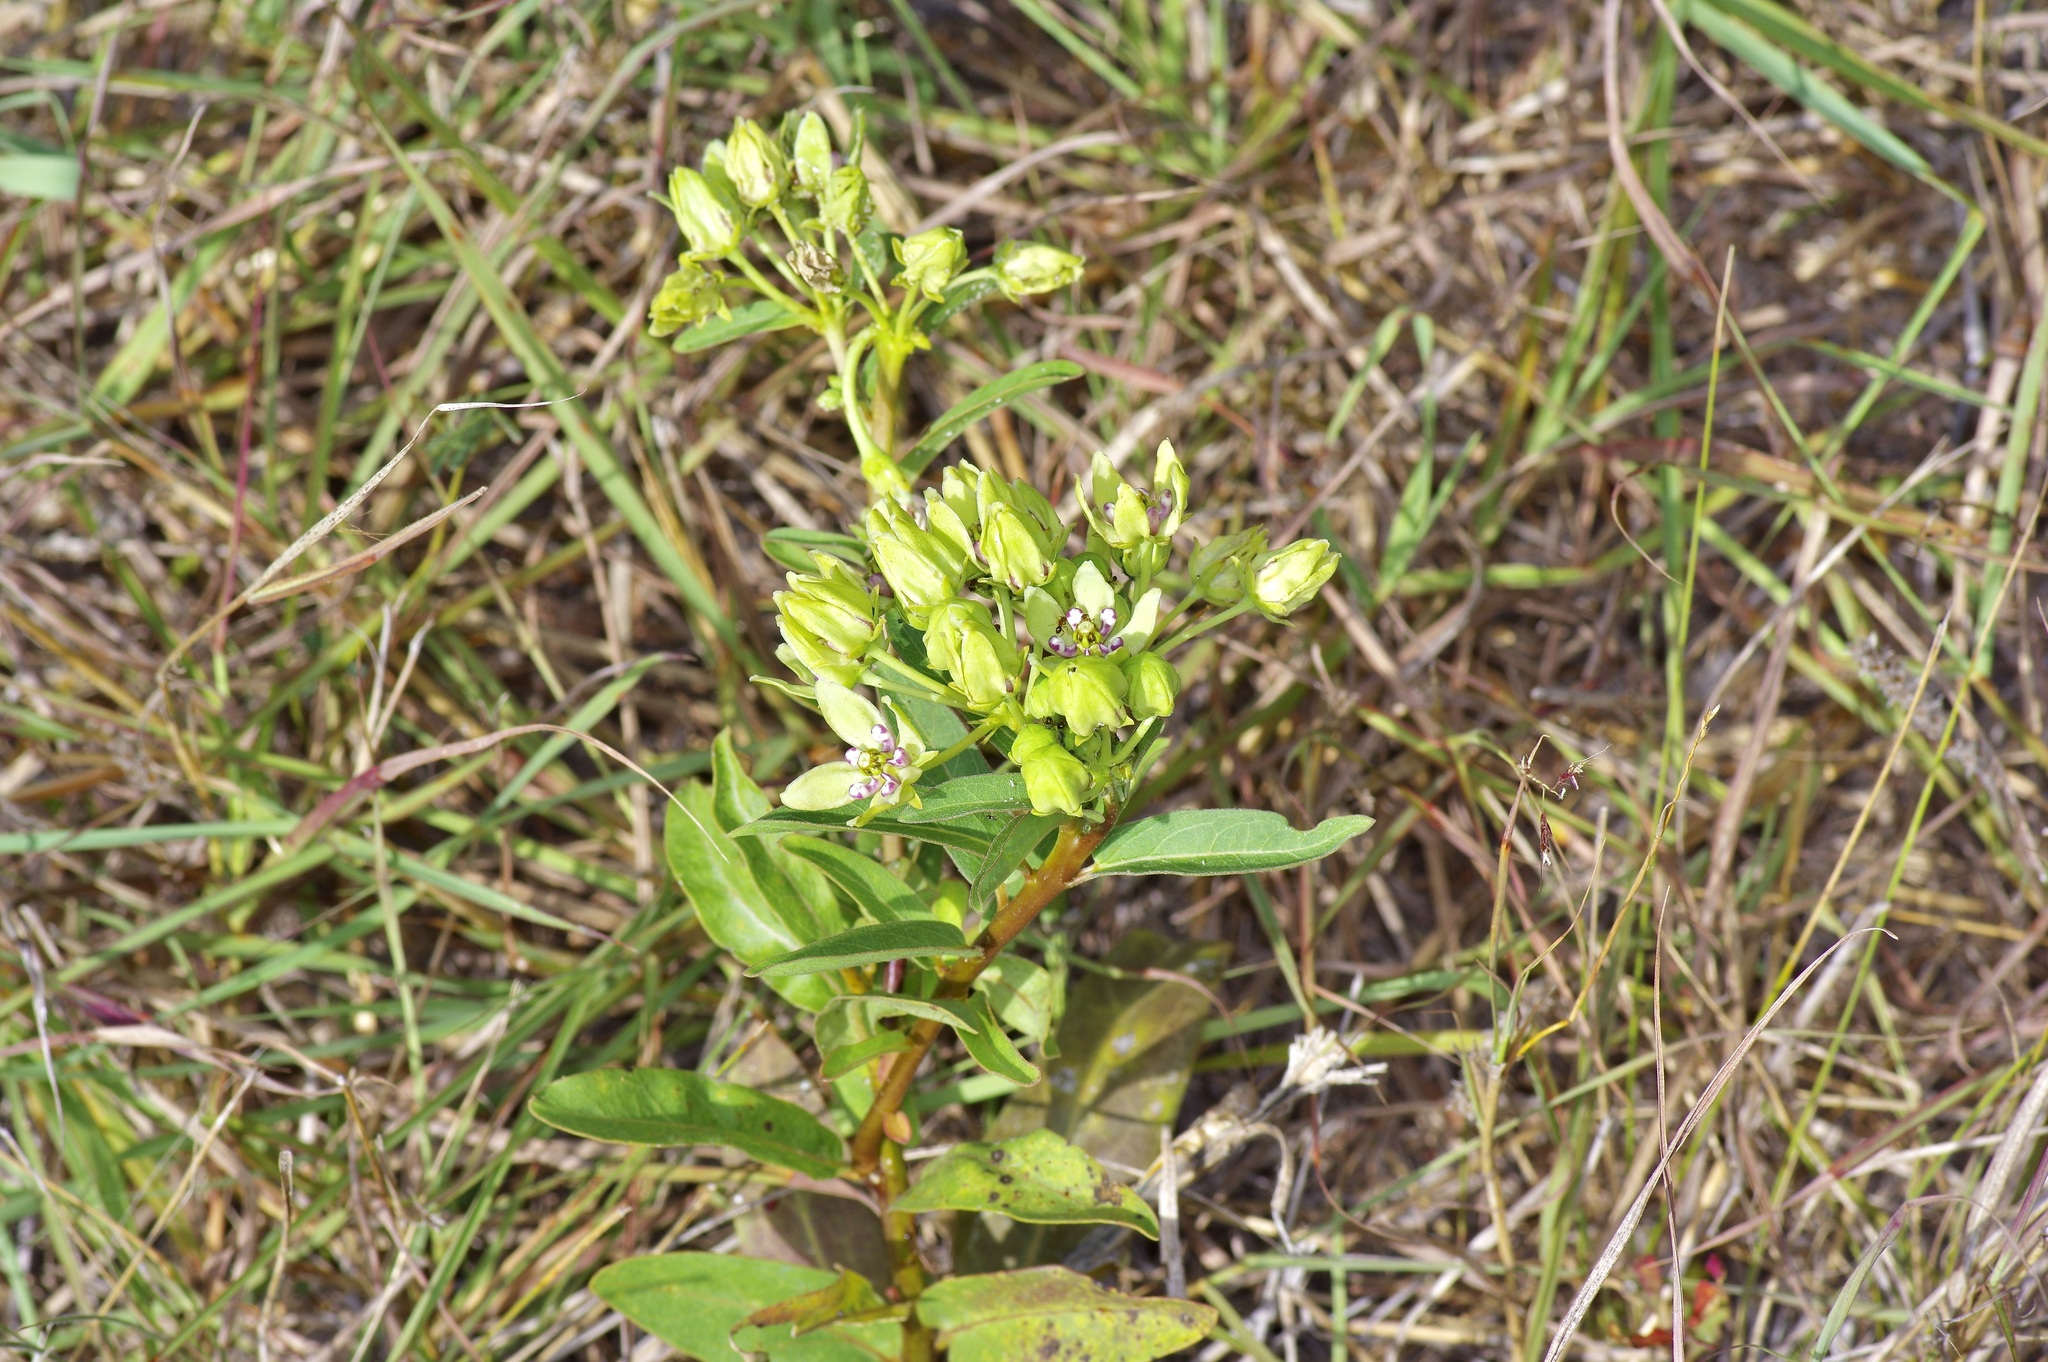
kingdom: Plantae
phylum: Tracheophyta
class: Magnoliopsida
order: Gentianales
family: Apocynaceae
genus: Asclepias
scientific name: Asclepias viridis
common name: Antelope-horns
